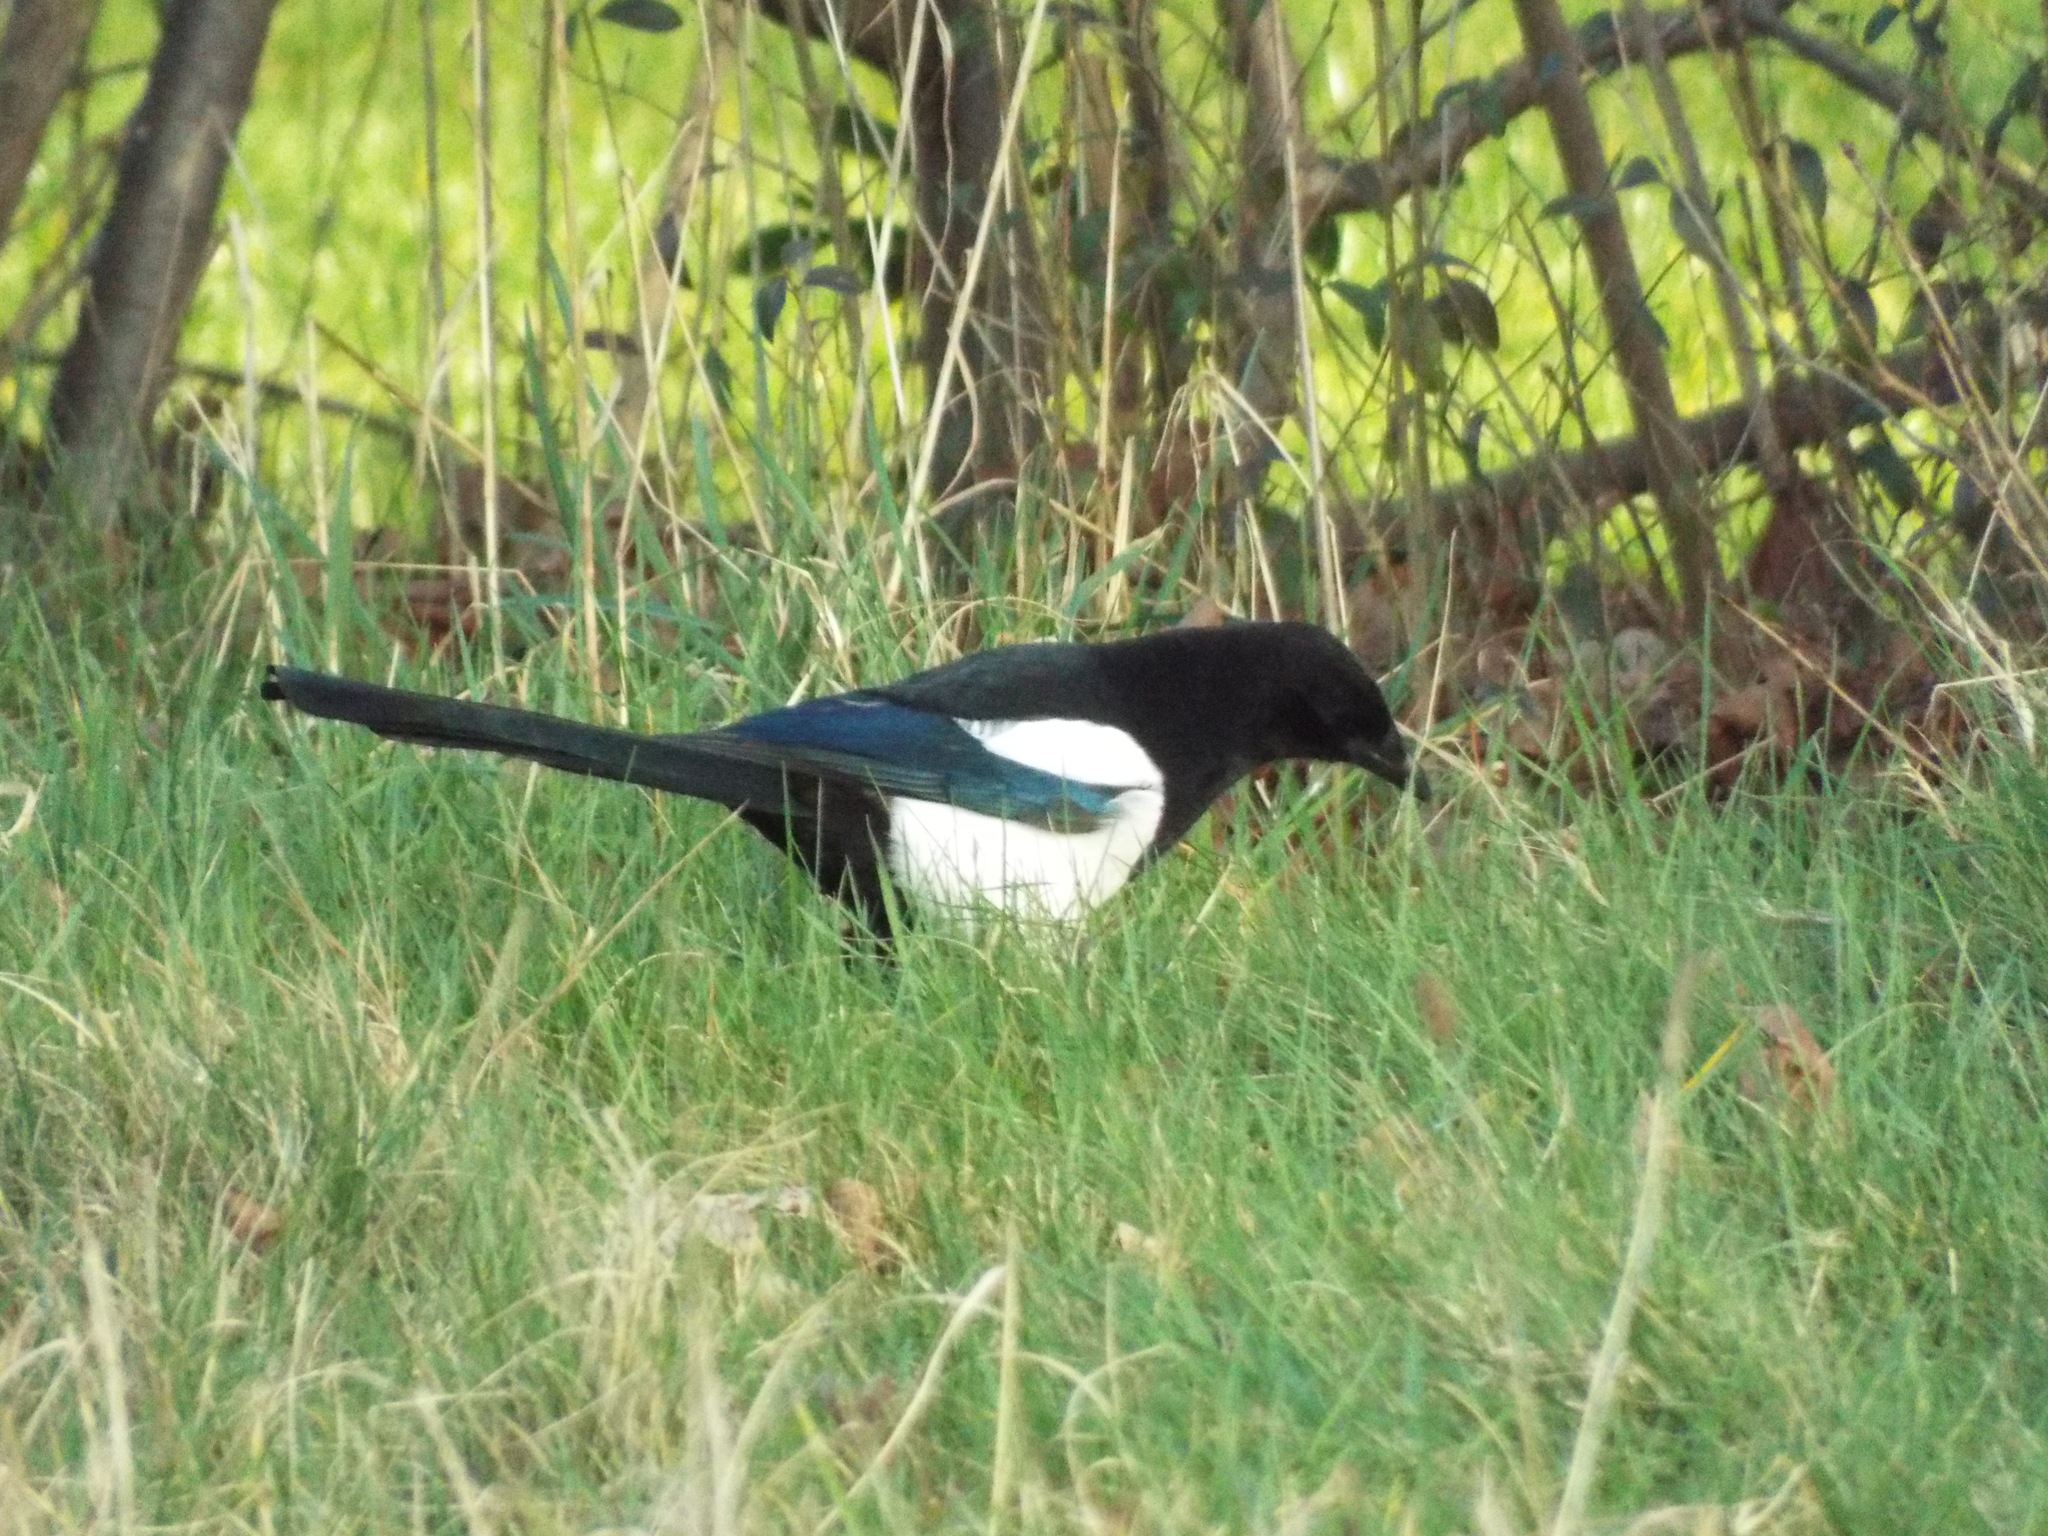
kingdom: Animalia
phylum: Chordata
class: Aves
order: Passeriformes
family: Corvidae
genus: Pica
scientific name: Pica pica
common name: Eurasian magpie
